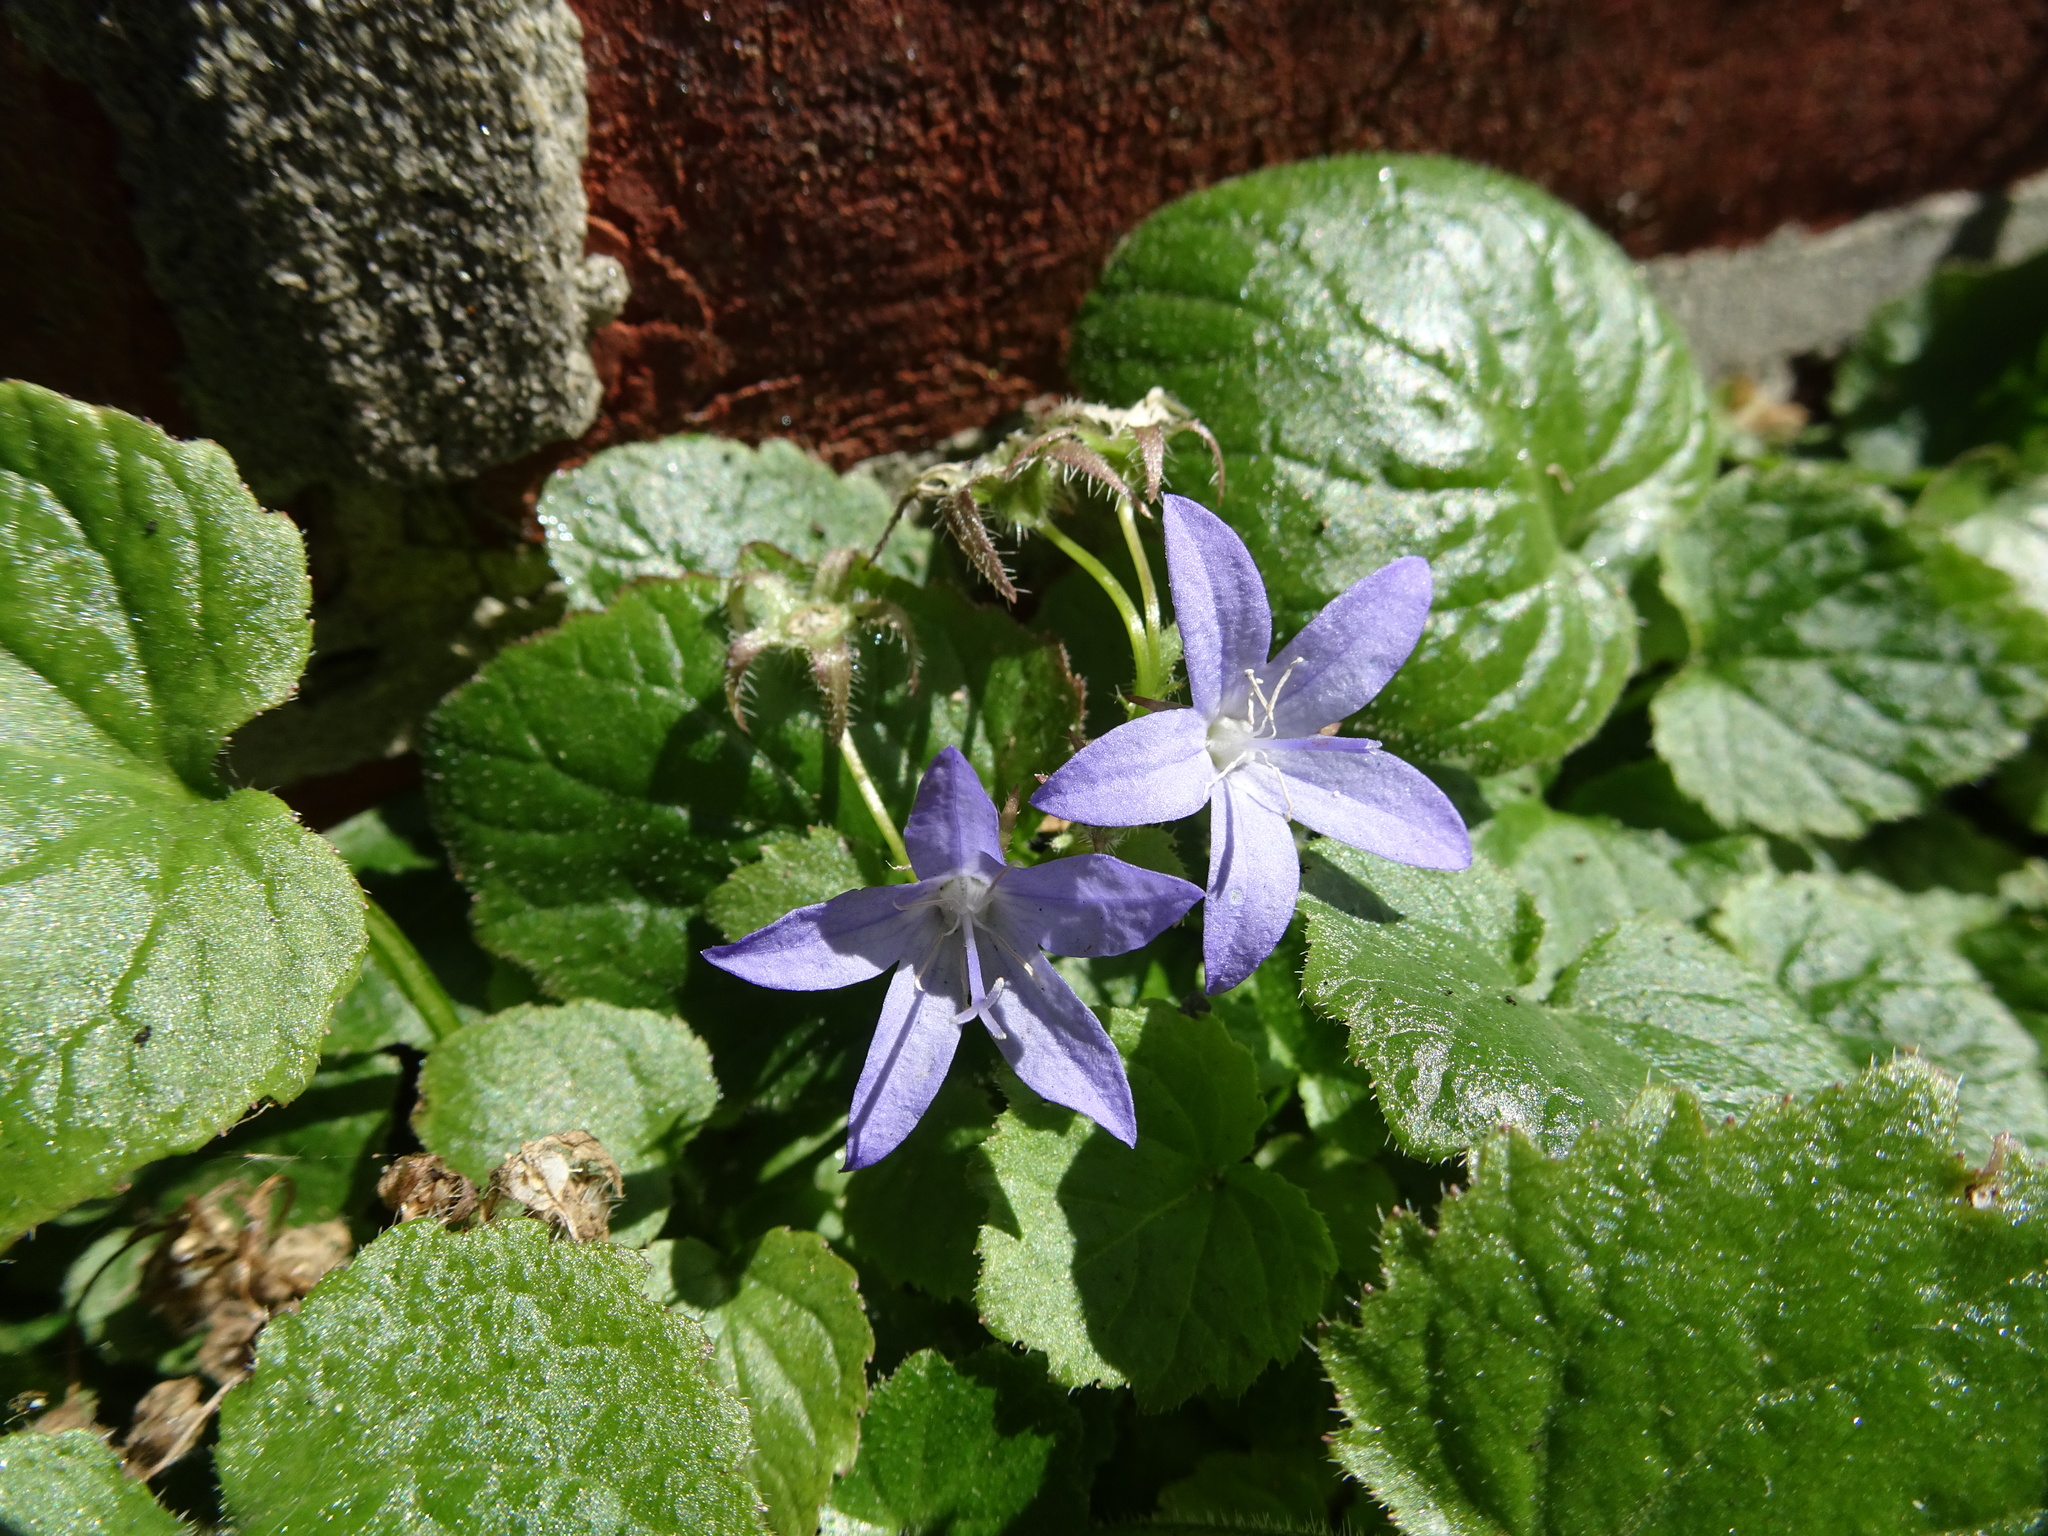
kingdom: Plantae
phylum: Tracheophyta
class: Magnoliopsida
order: Asterales
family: Campanulaceae
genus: Campanula
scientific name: Campanula poscharskyana
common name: Trailing bellflower
